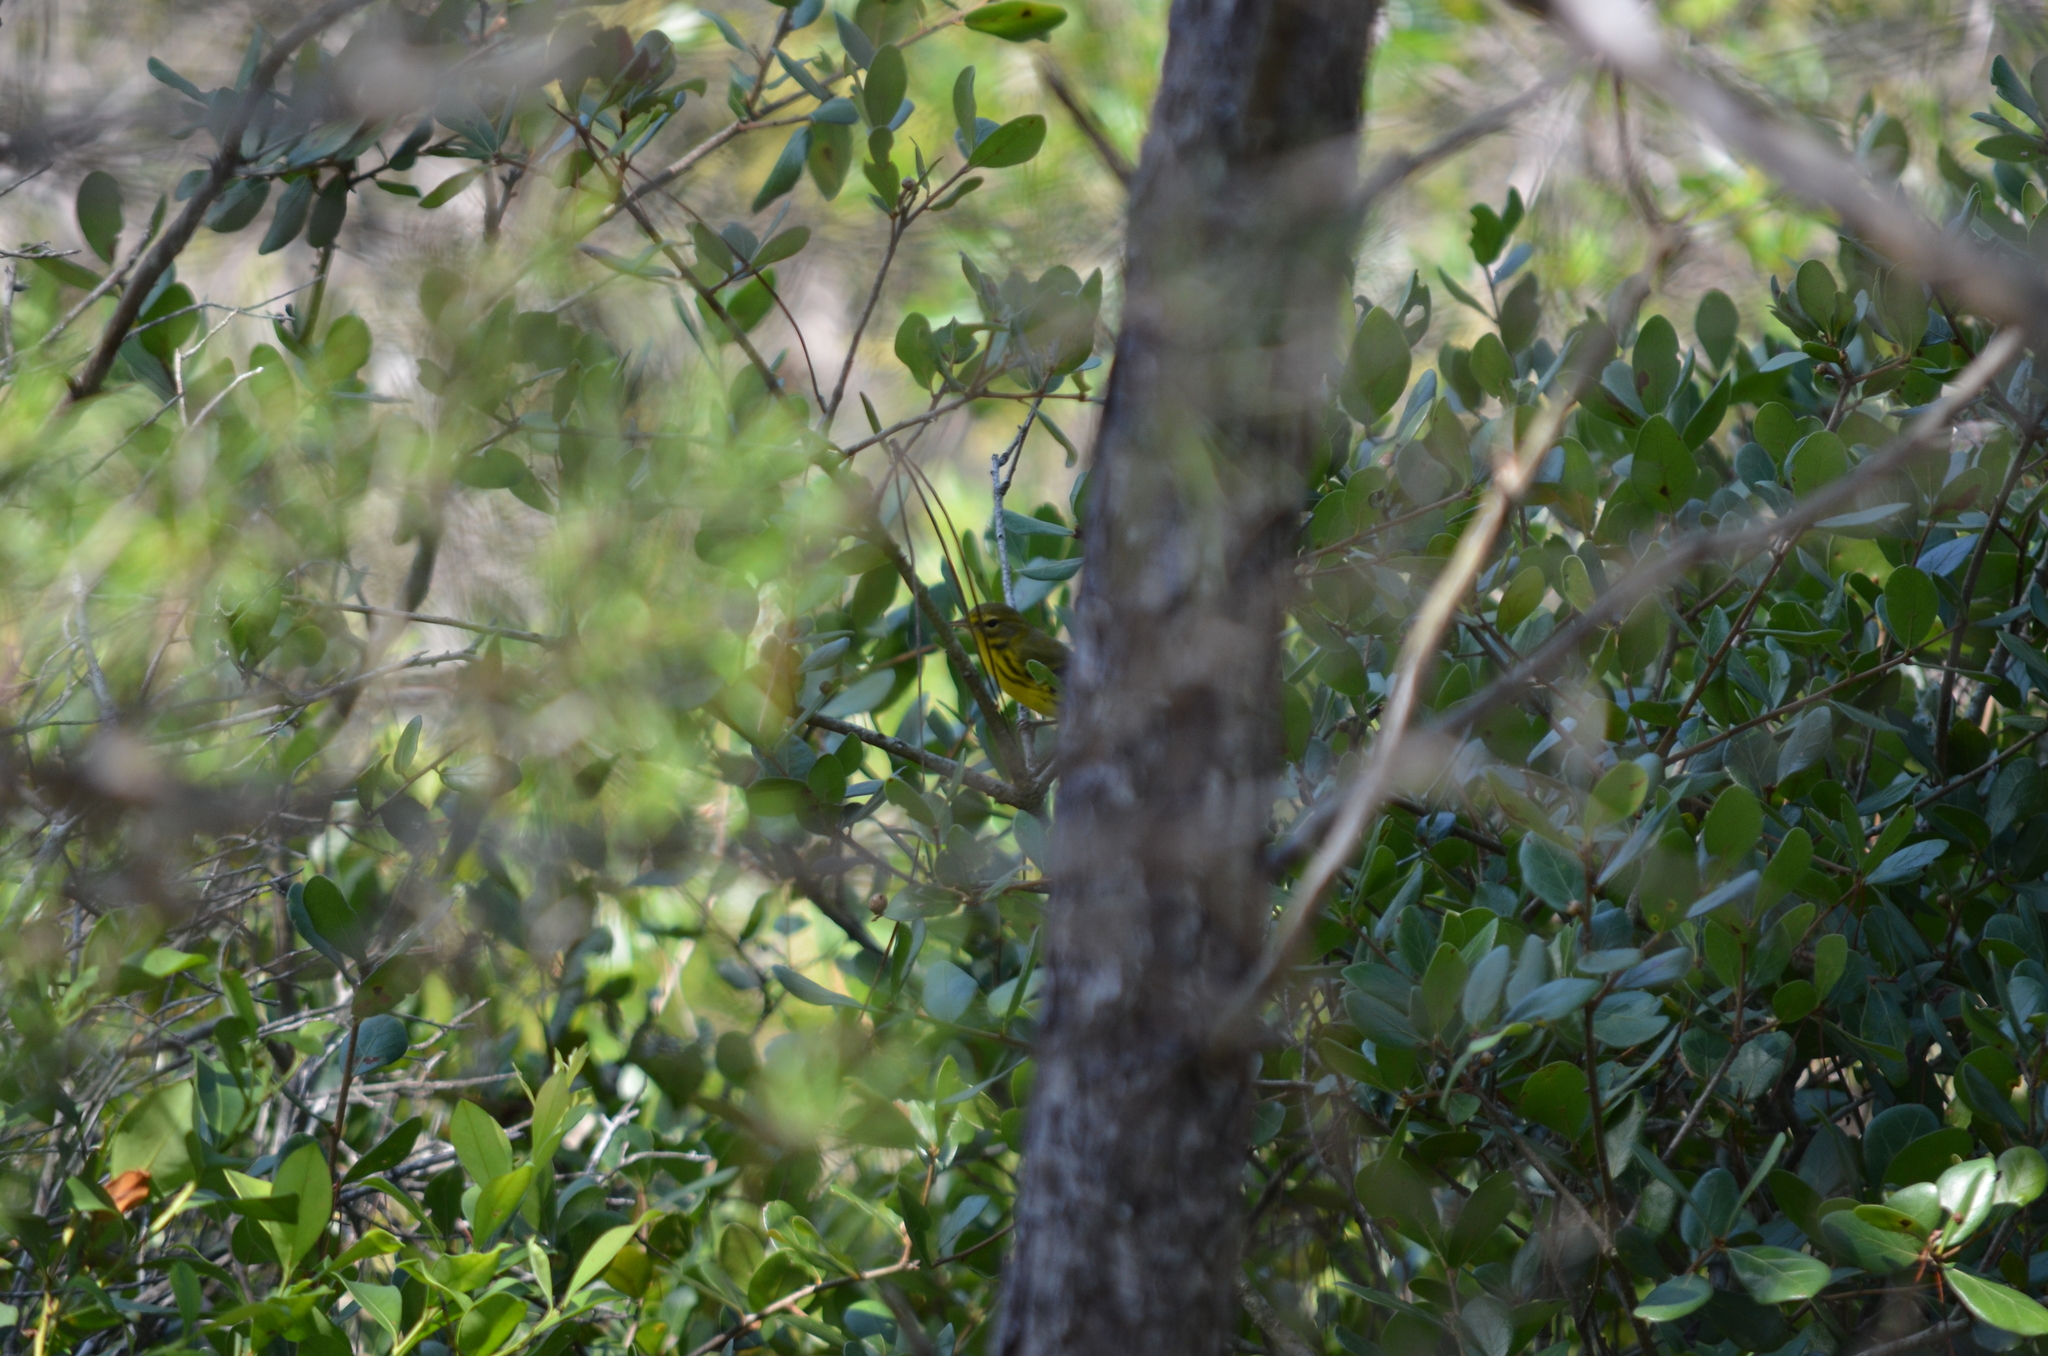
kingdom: Animalia
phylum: Chordata
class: Aves
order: Passeriformes
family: Parulidae
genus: Setophaga
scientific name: Setophaga discolor
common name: Prairie warbler
